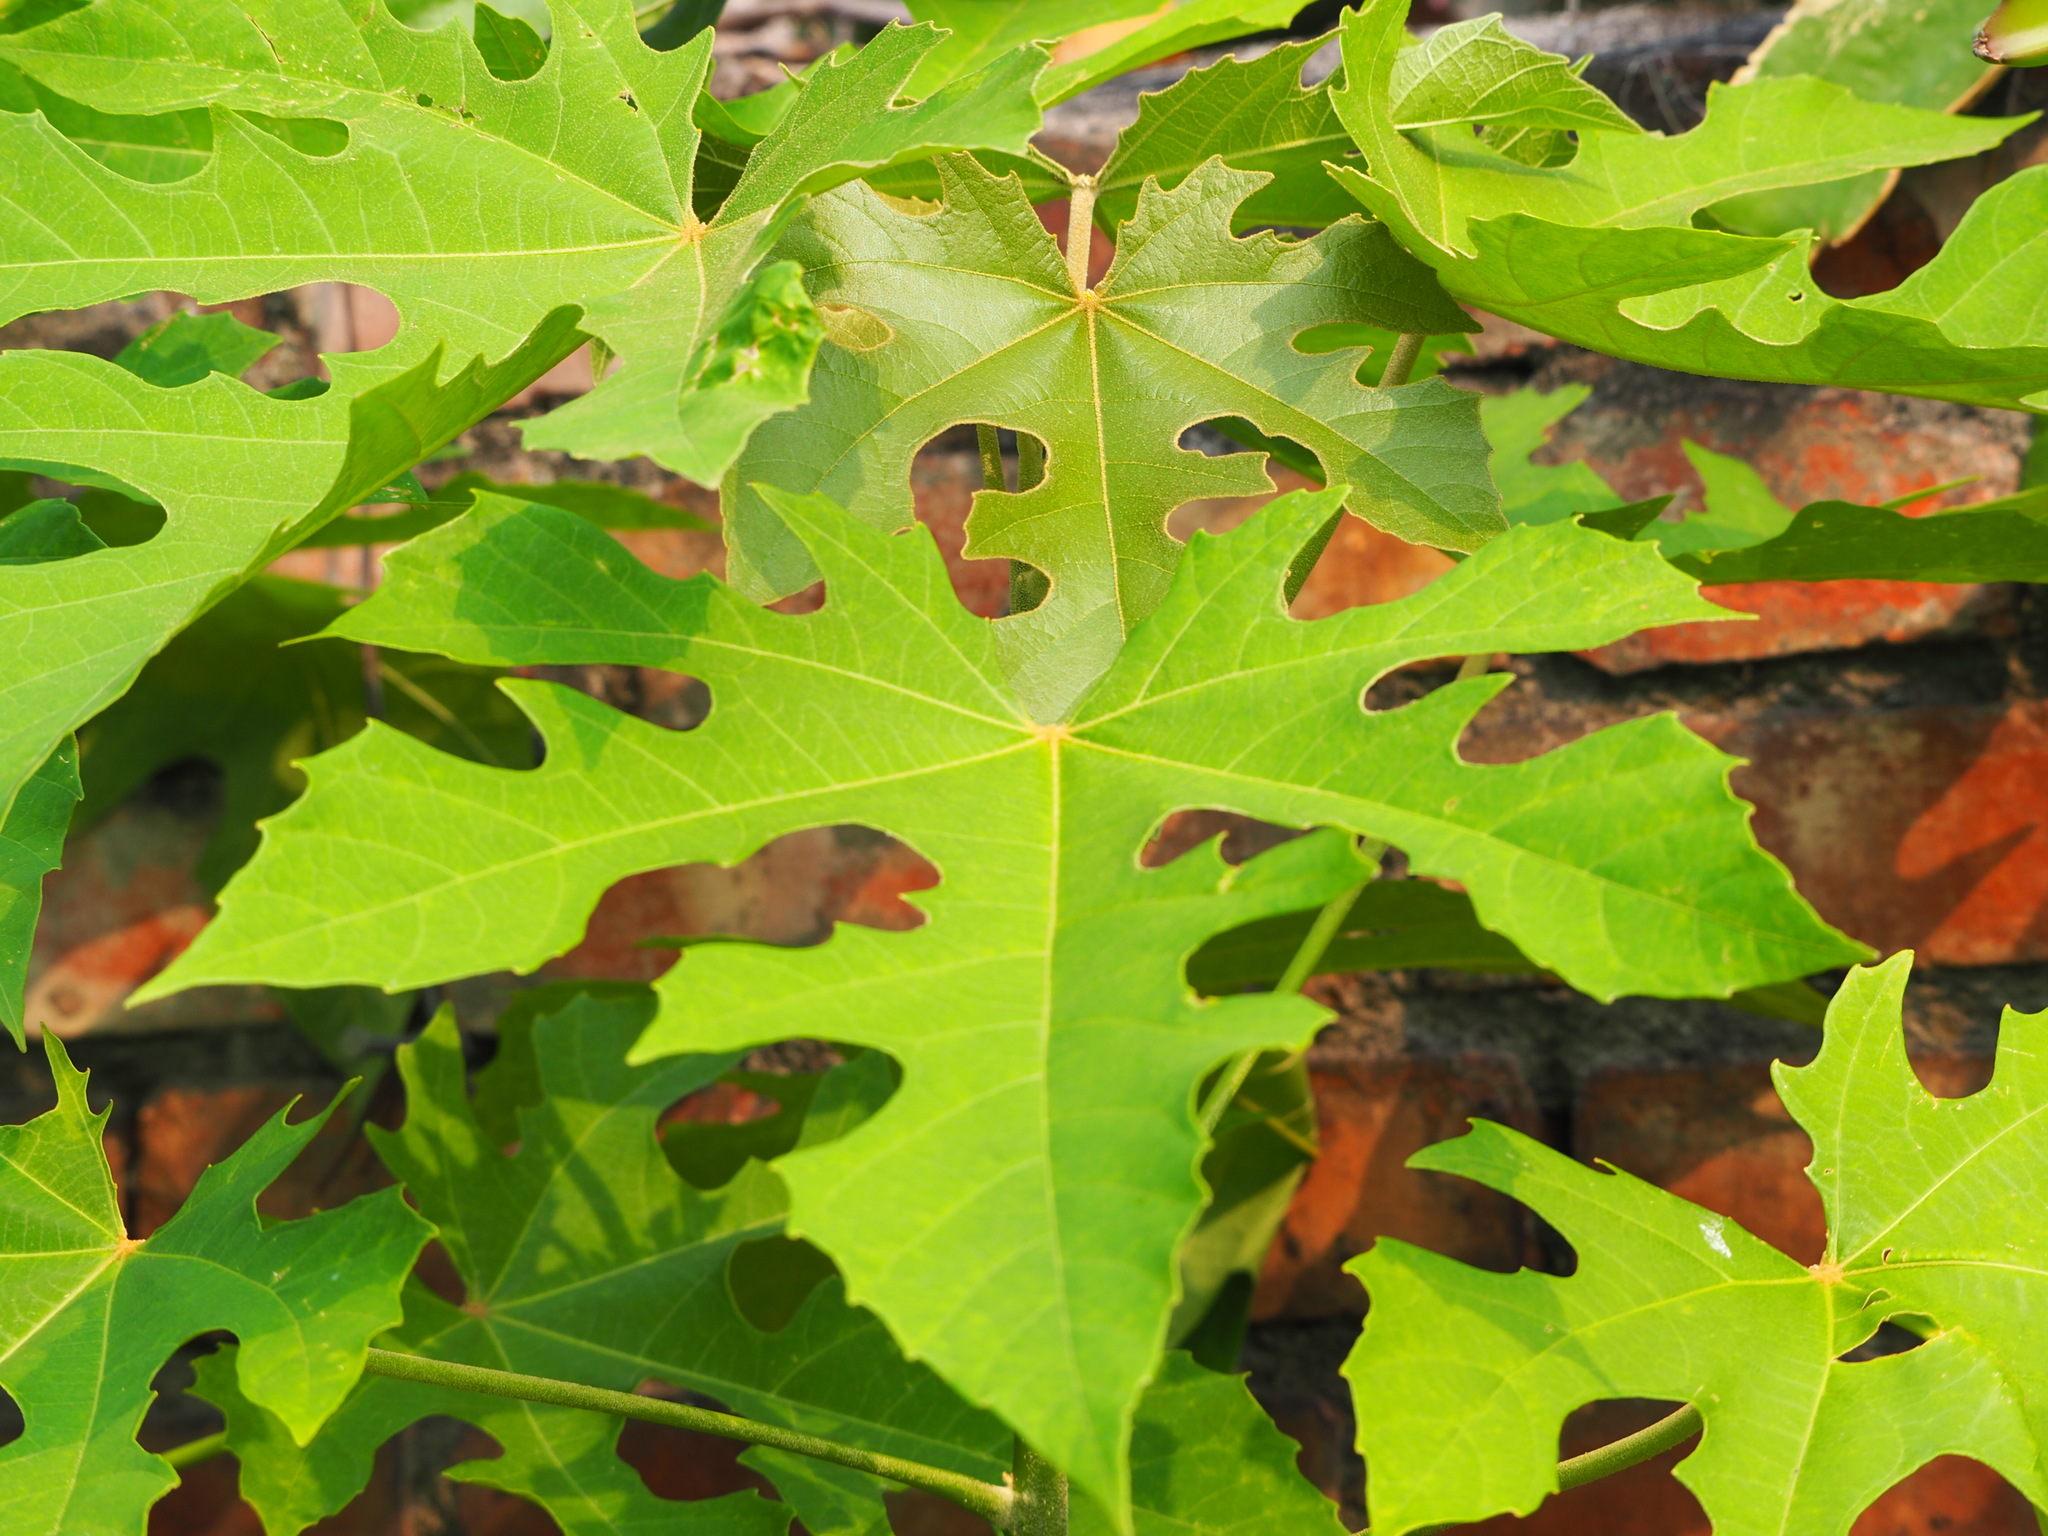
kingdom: Plantae
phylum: Tracheophyta
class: Magnoliopsida
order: Malpighiales
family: Euphorbiaceae
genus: Melanolepis
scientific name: Melanolepis multiglandulosa
